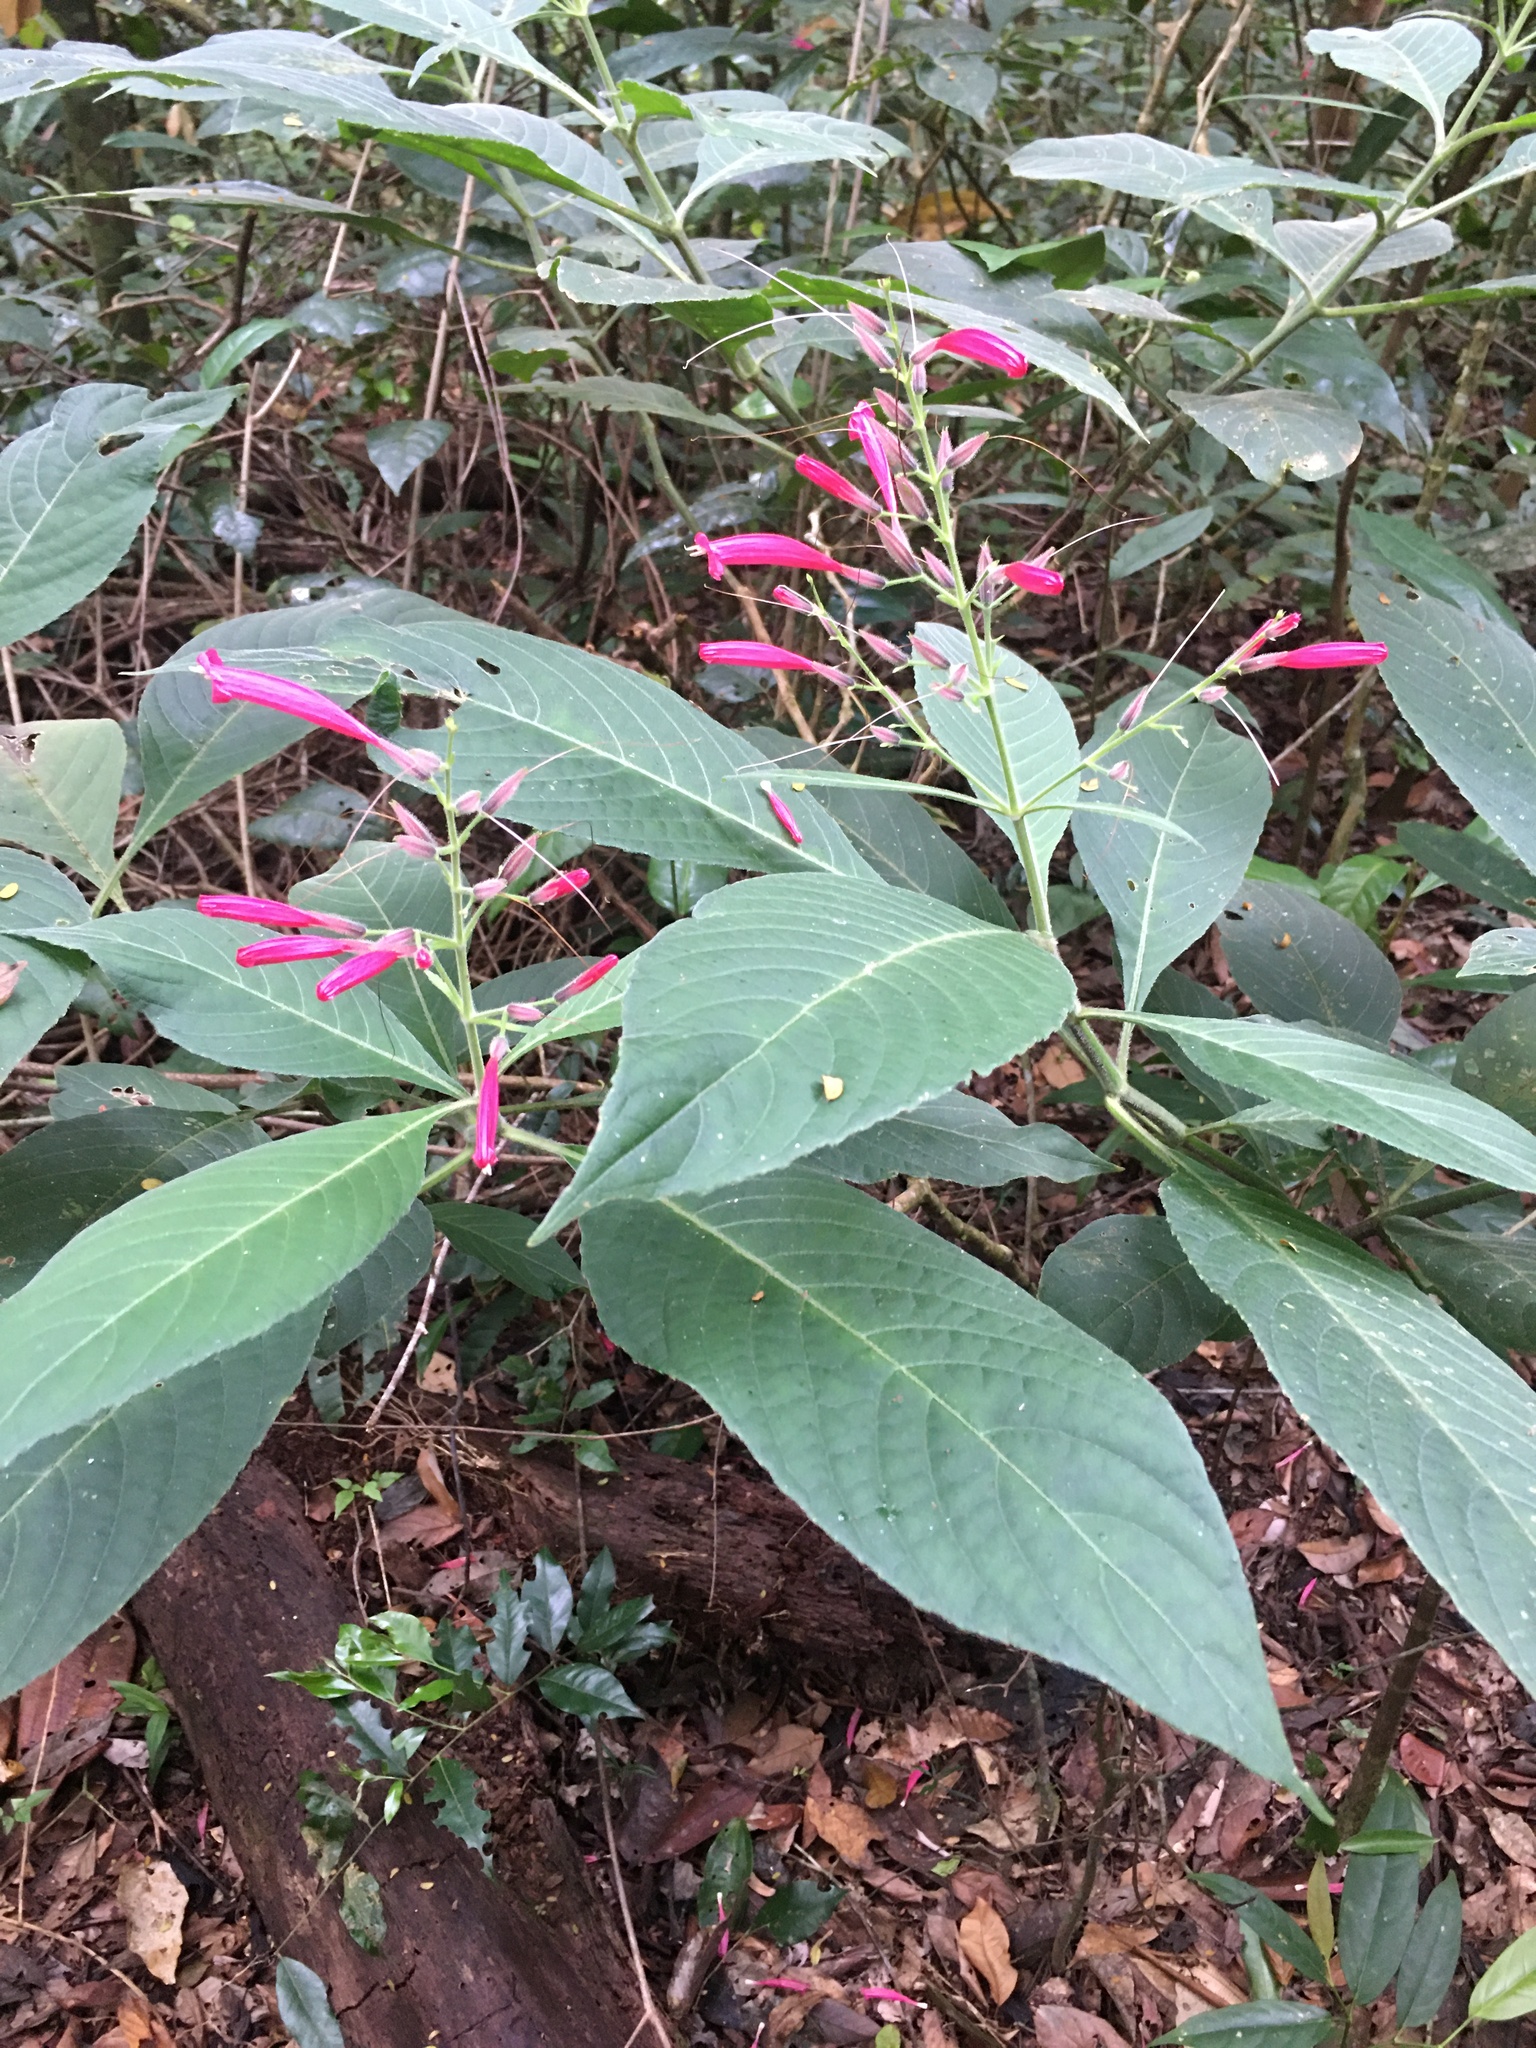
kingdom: Plantae
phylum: Tracheophyta
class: Magnoliopsida
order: Lamiales
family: Acanthaceae
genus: Ruellia
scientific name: Ruellia cearensis
